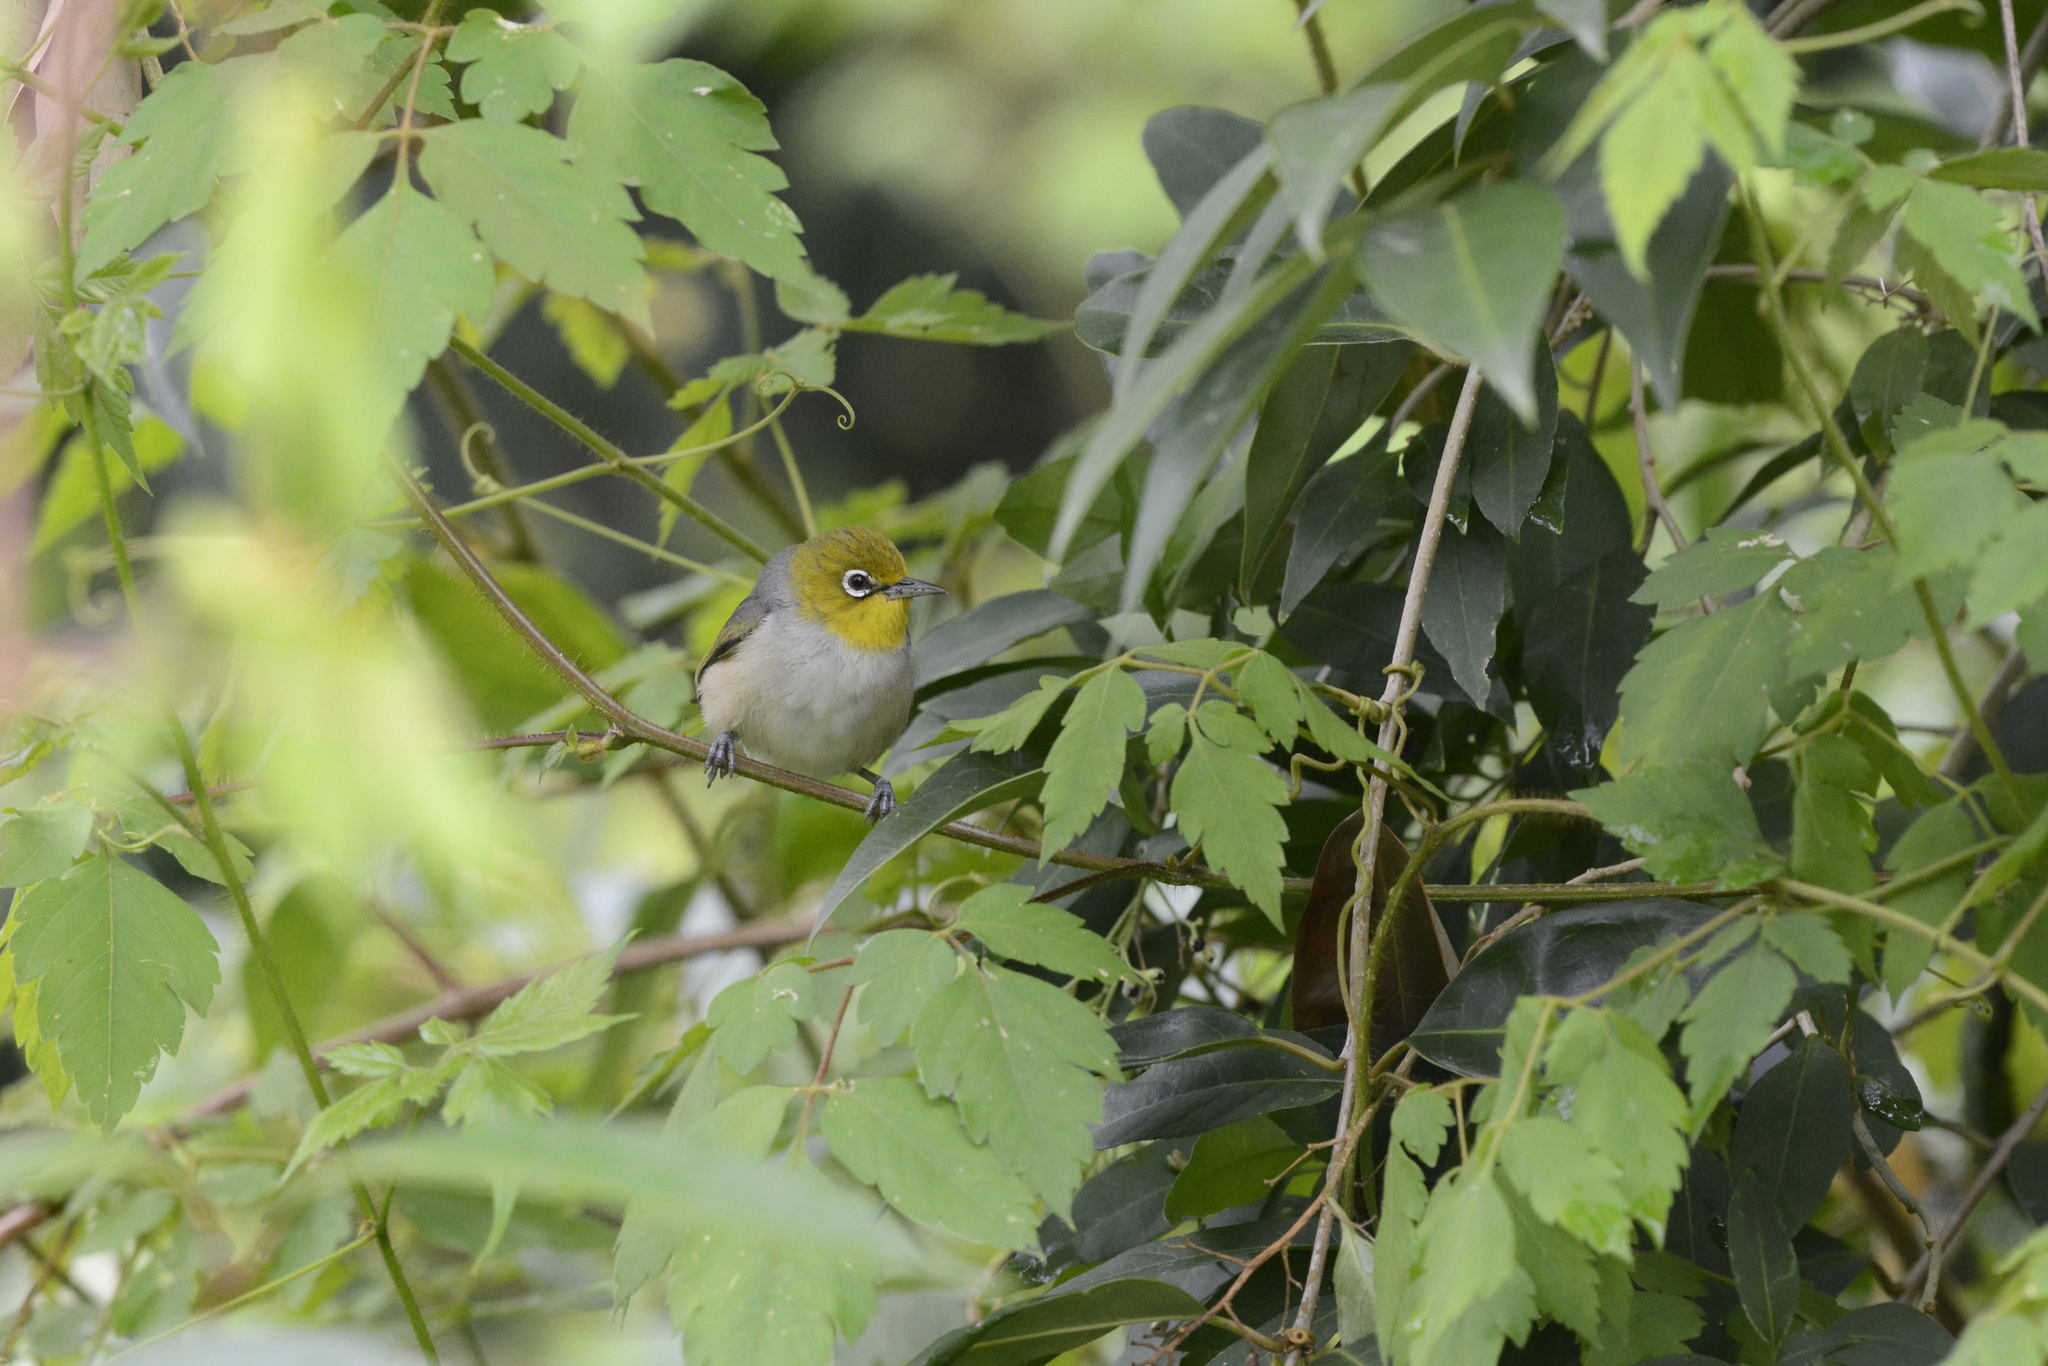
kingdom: Animalia
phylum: Chordata
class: Aves
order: Passeriformes
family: Zosteropidae
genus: Zosterops
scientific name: Zosterops lateralis
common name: Silvereye
